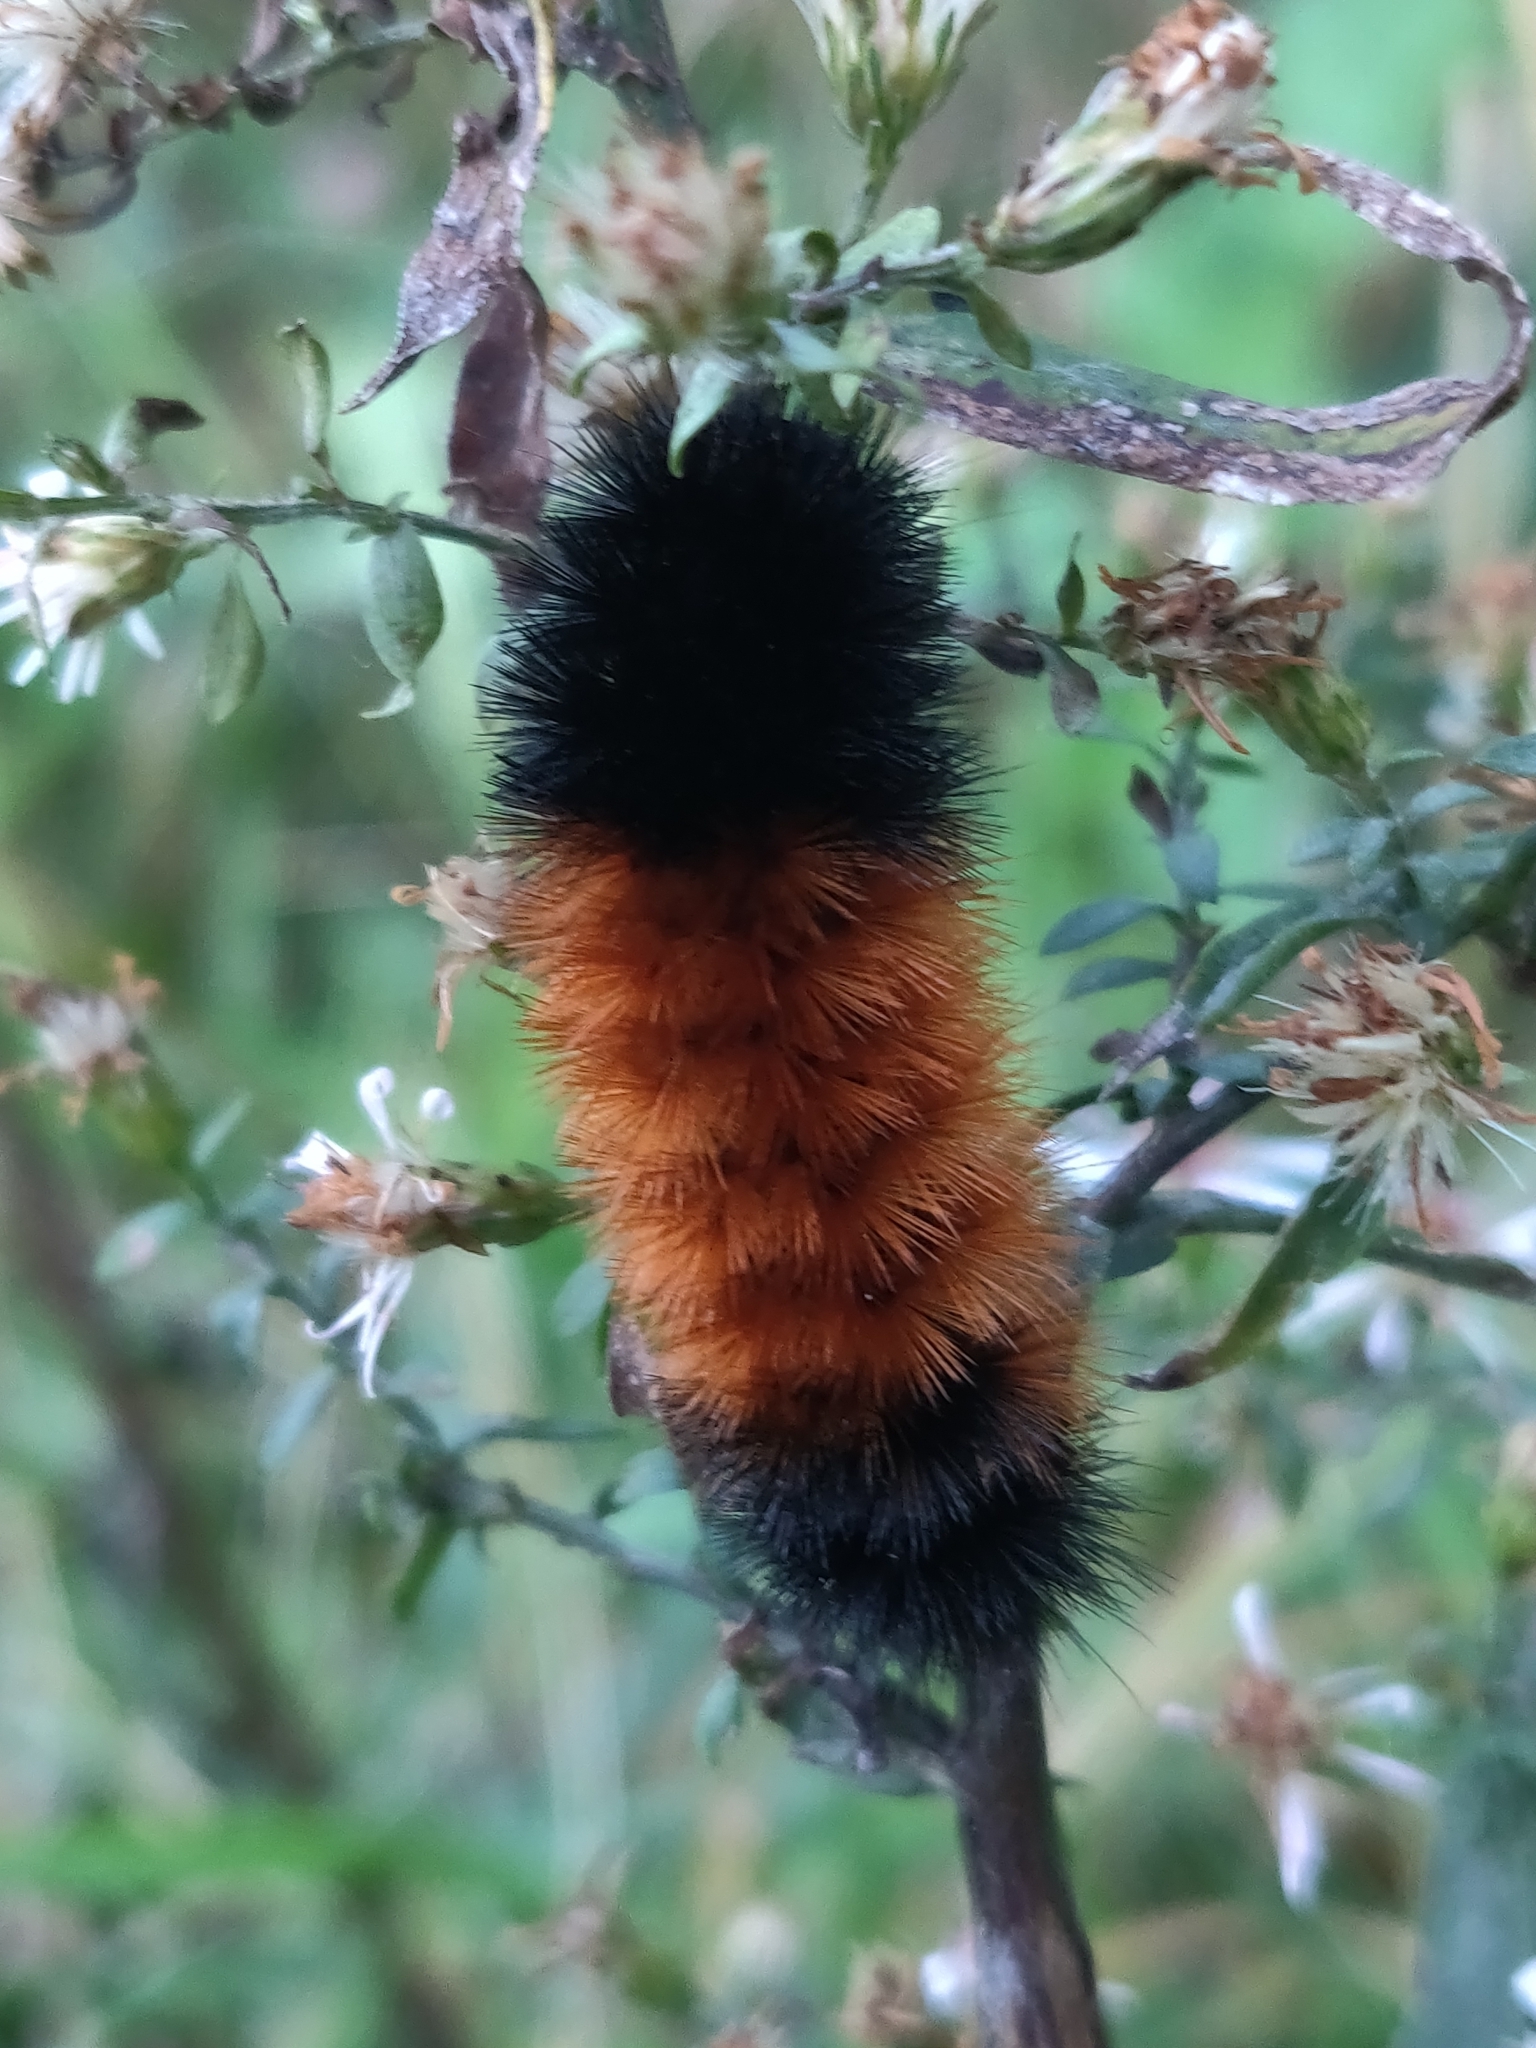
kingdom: Animalia
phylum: Arthropoda
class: Insecta
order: Lepidoptera
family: Erebidae
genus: Pyrrharctia
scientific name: Pyrrharctia isabella
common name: Isabella tiger moth
